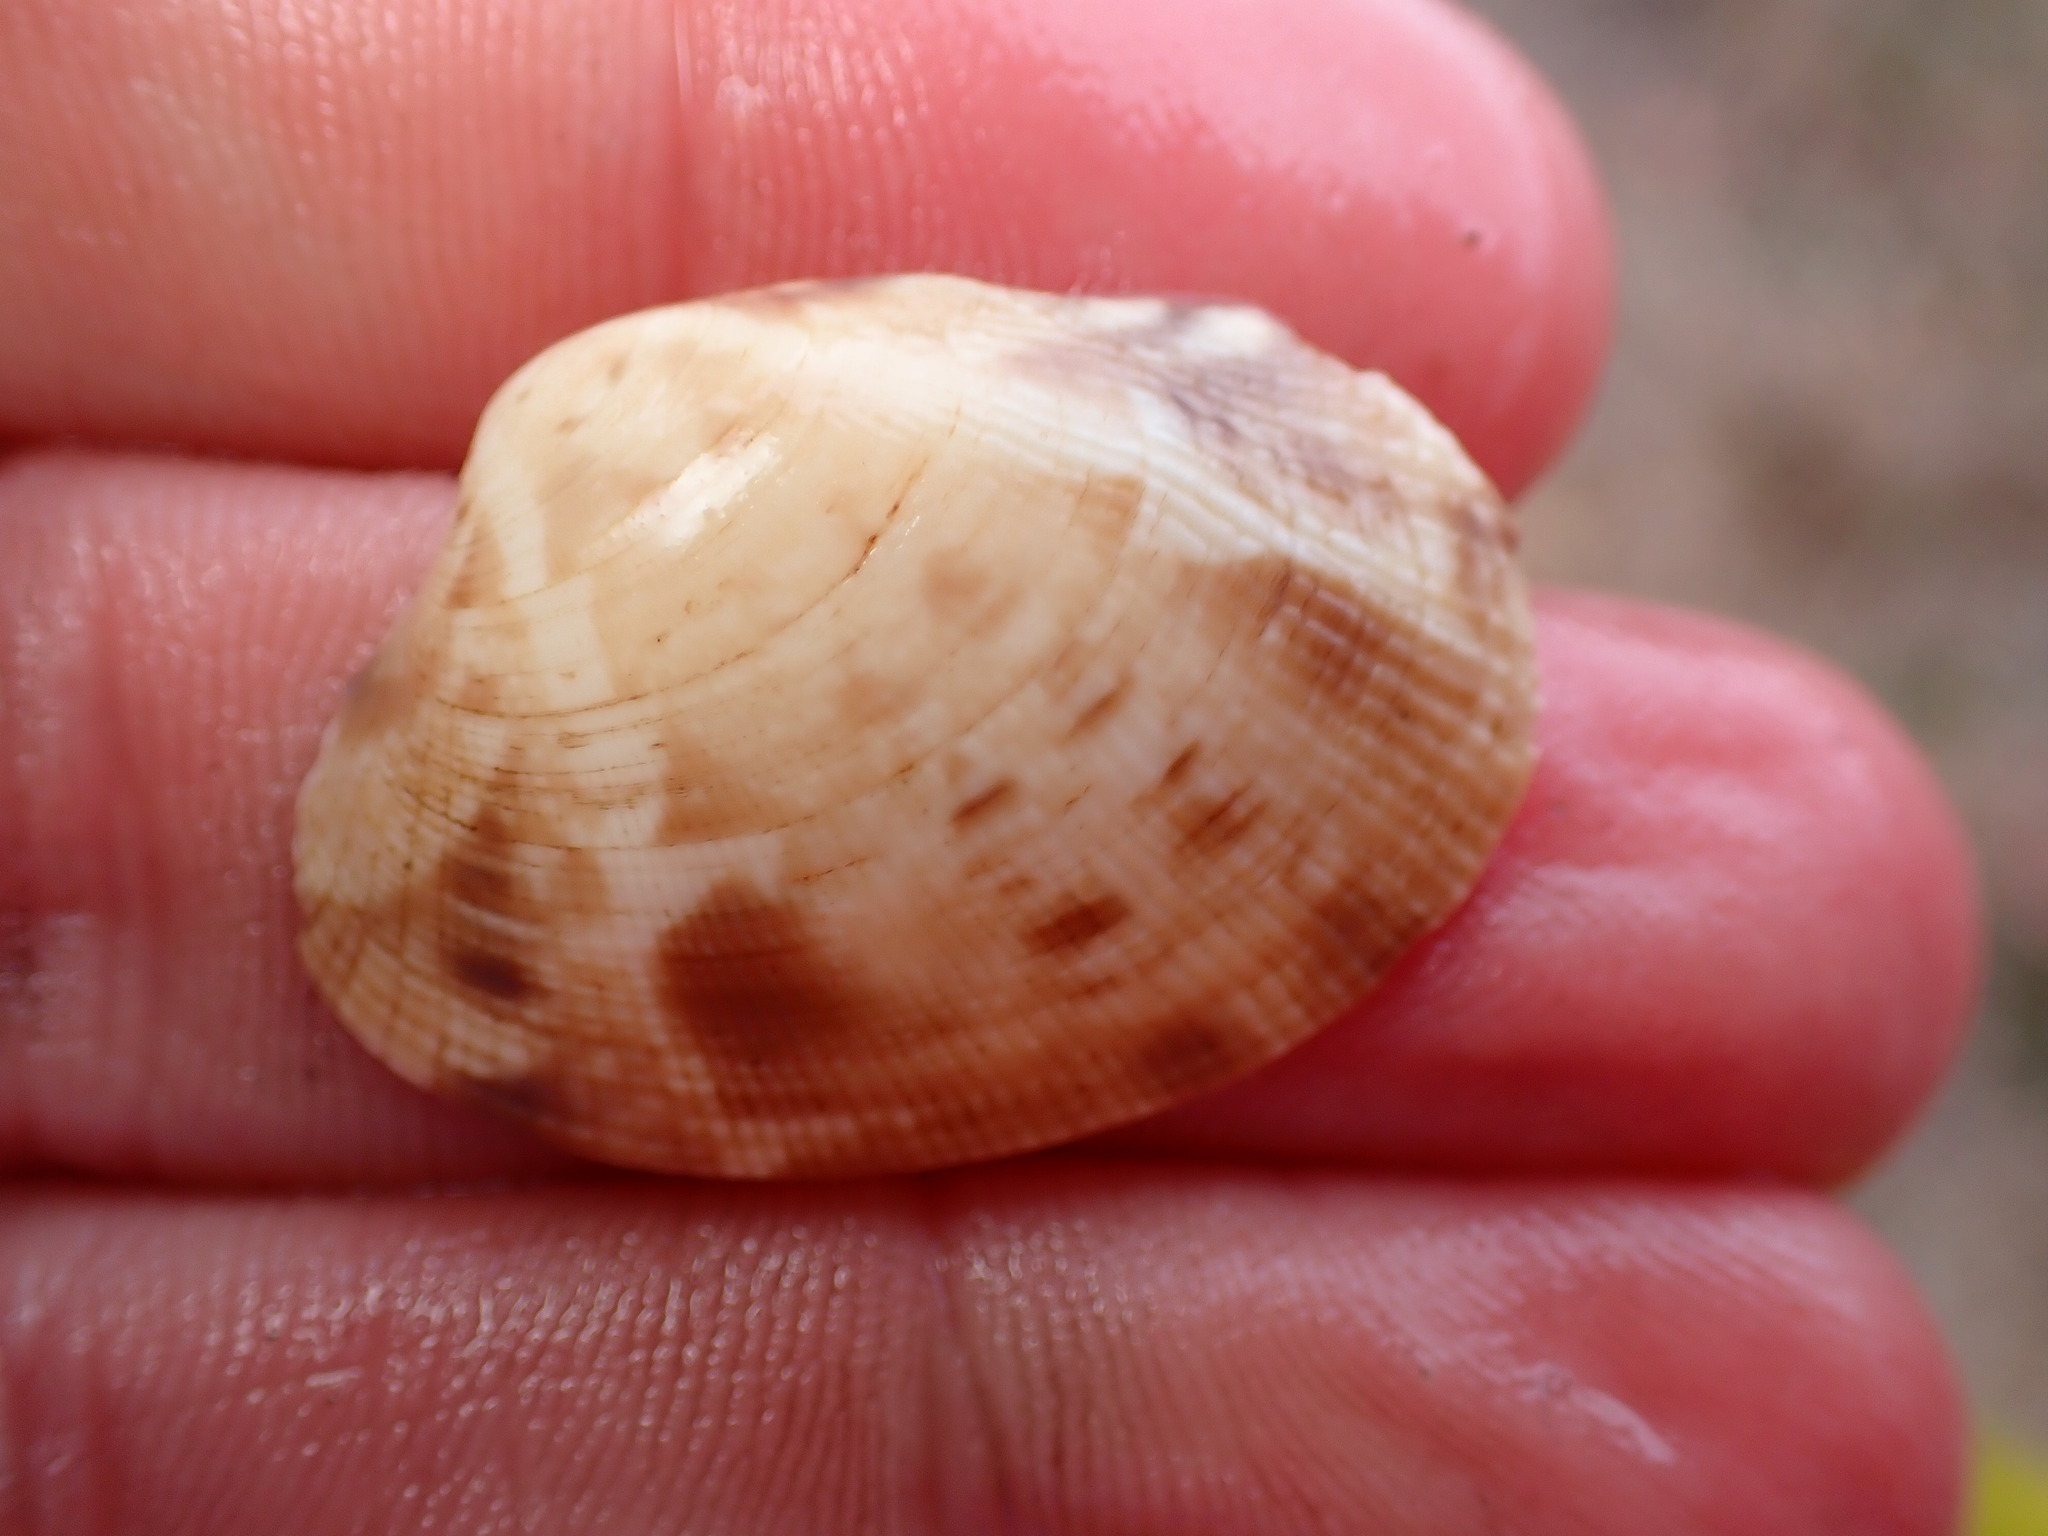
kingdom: Animalia
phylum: Mollusca
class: Bivalvia
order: Venerida
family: Veneridae
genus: Ruditapes
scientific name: Ruditapes philippinarum
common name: Manila clam
